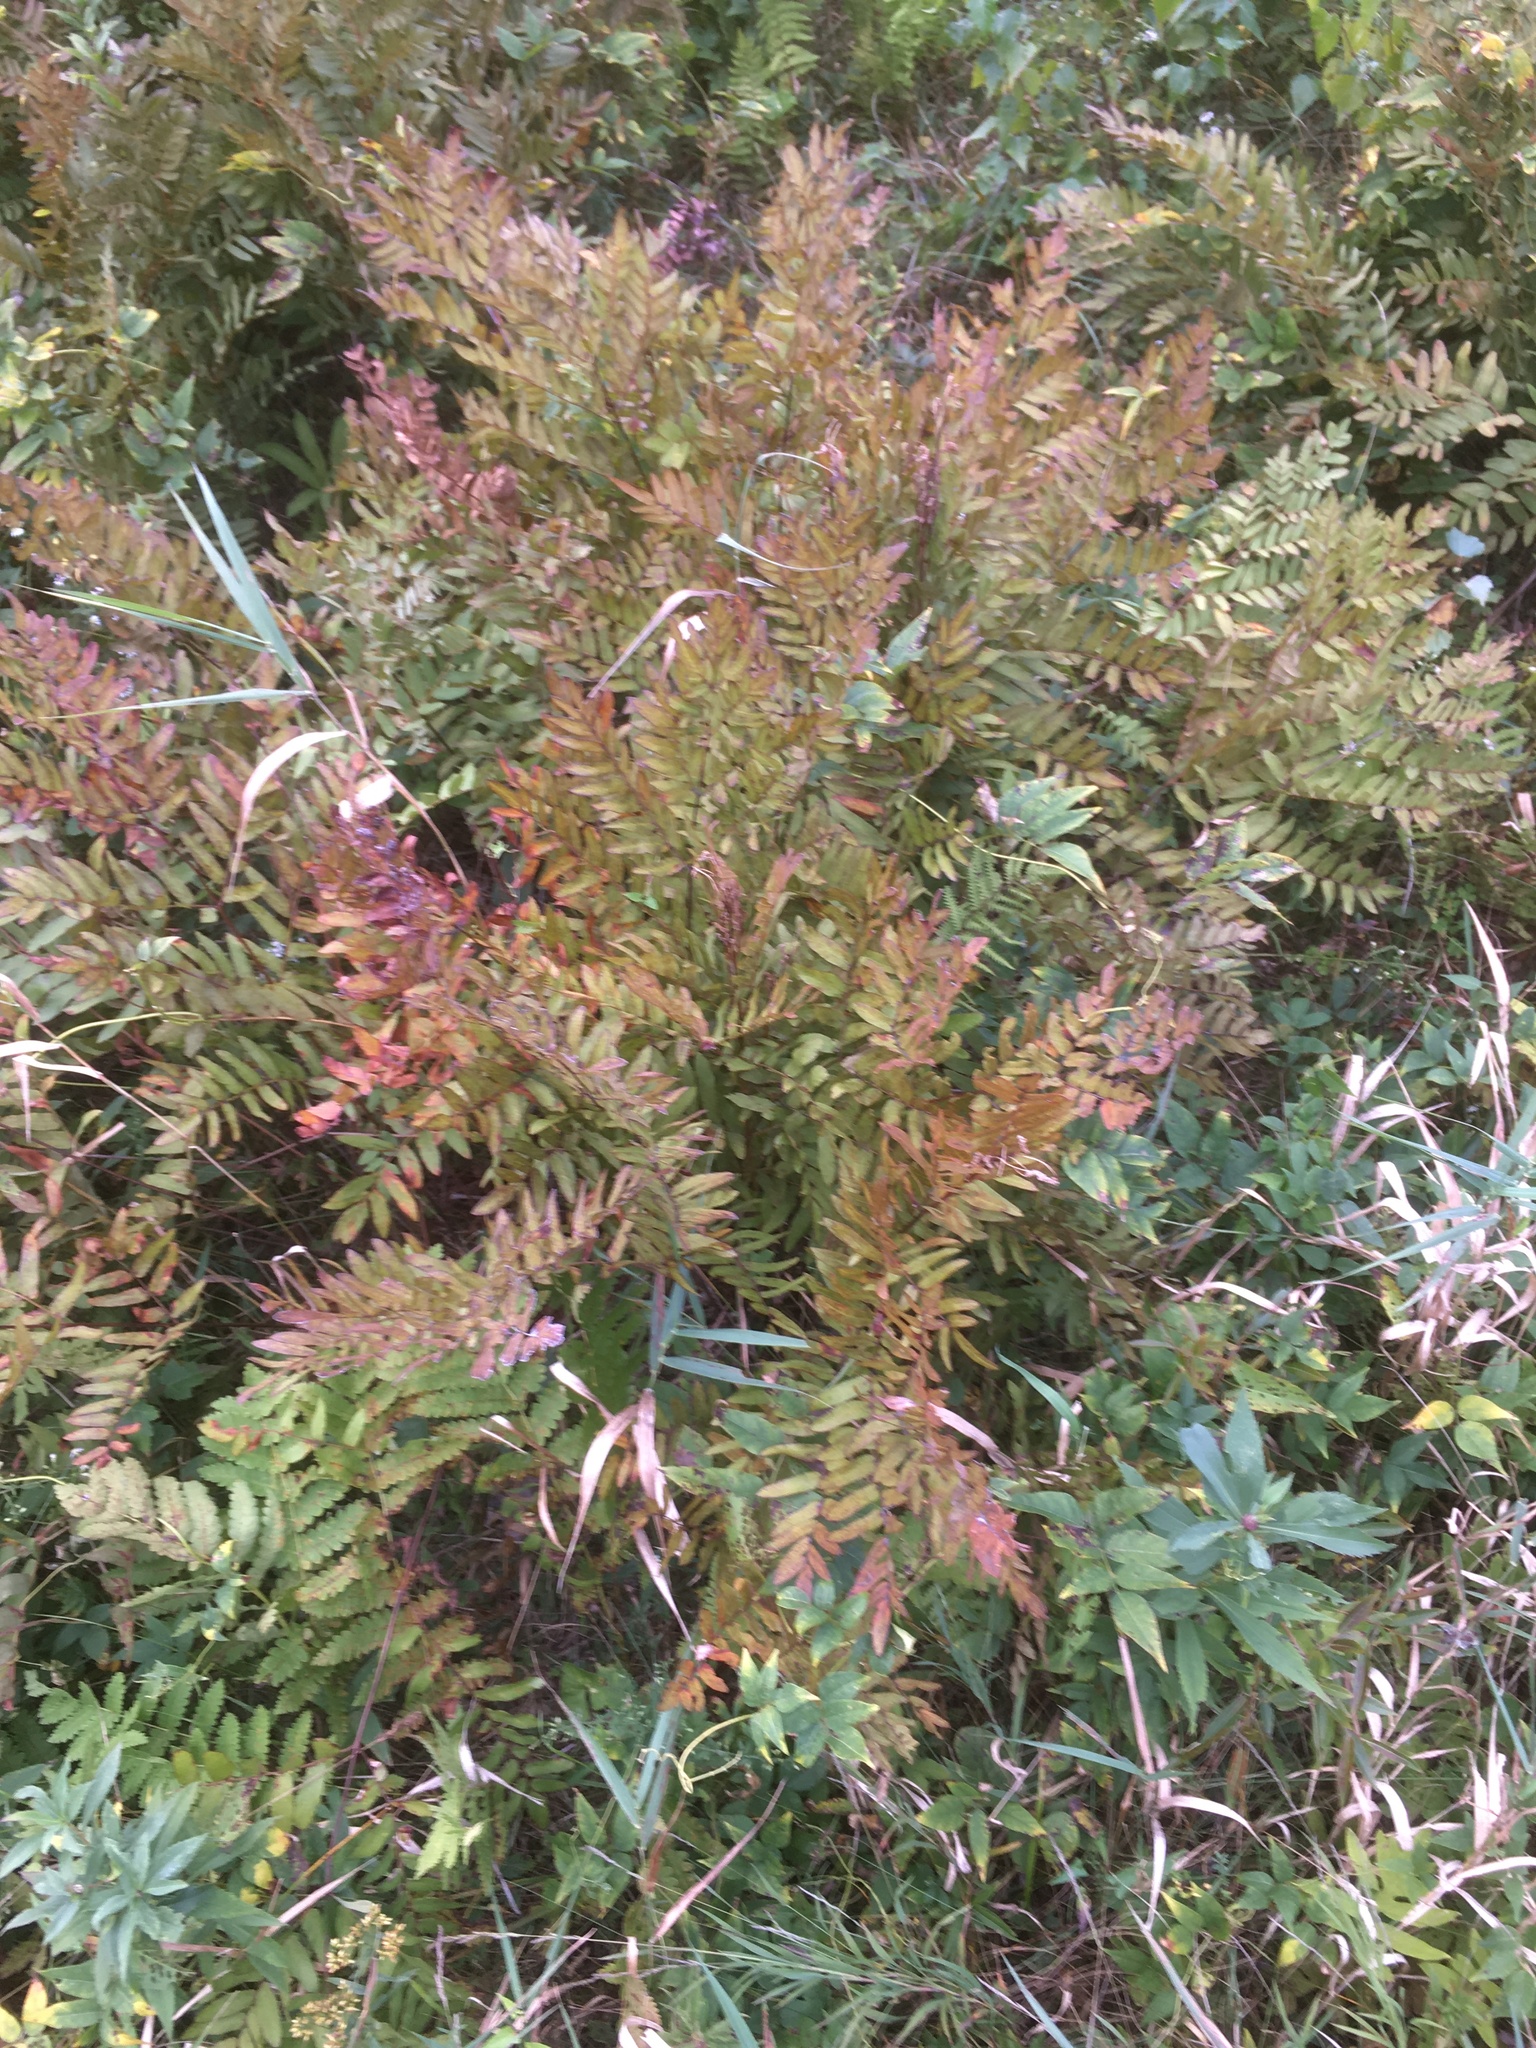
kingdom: Plantae
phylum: Tracheophyta
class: Polypodiopsida
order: Osmundales
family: Osmundaceae
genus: Osmunda
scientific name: Osmunda spectabilis
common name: American royal fern
